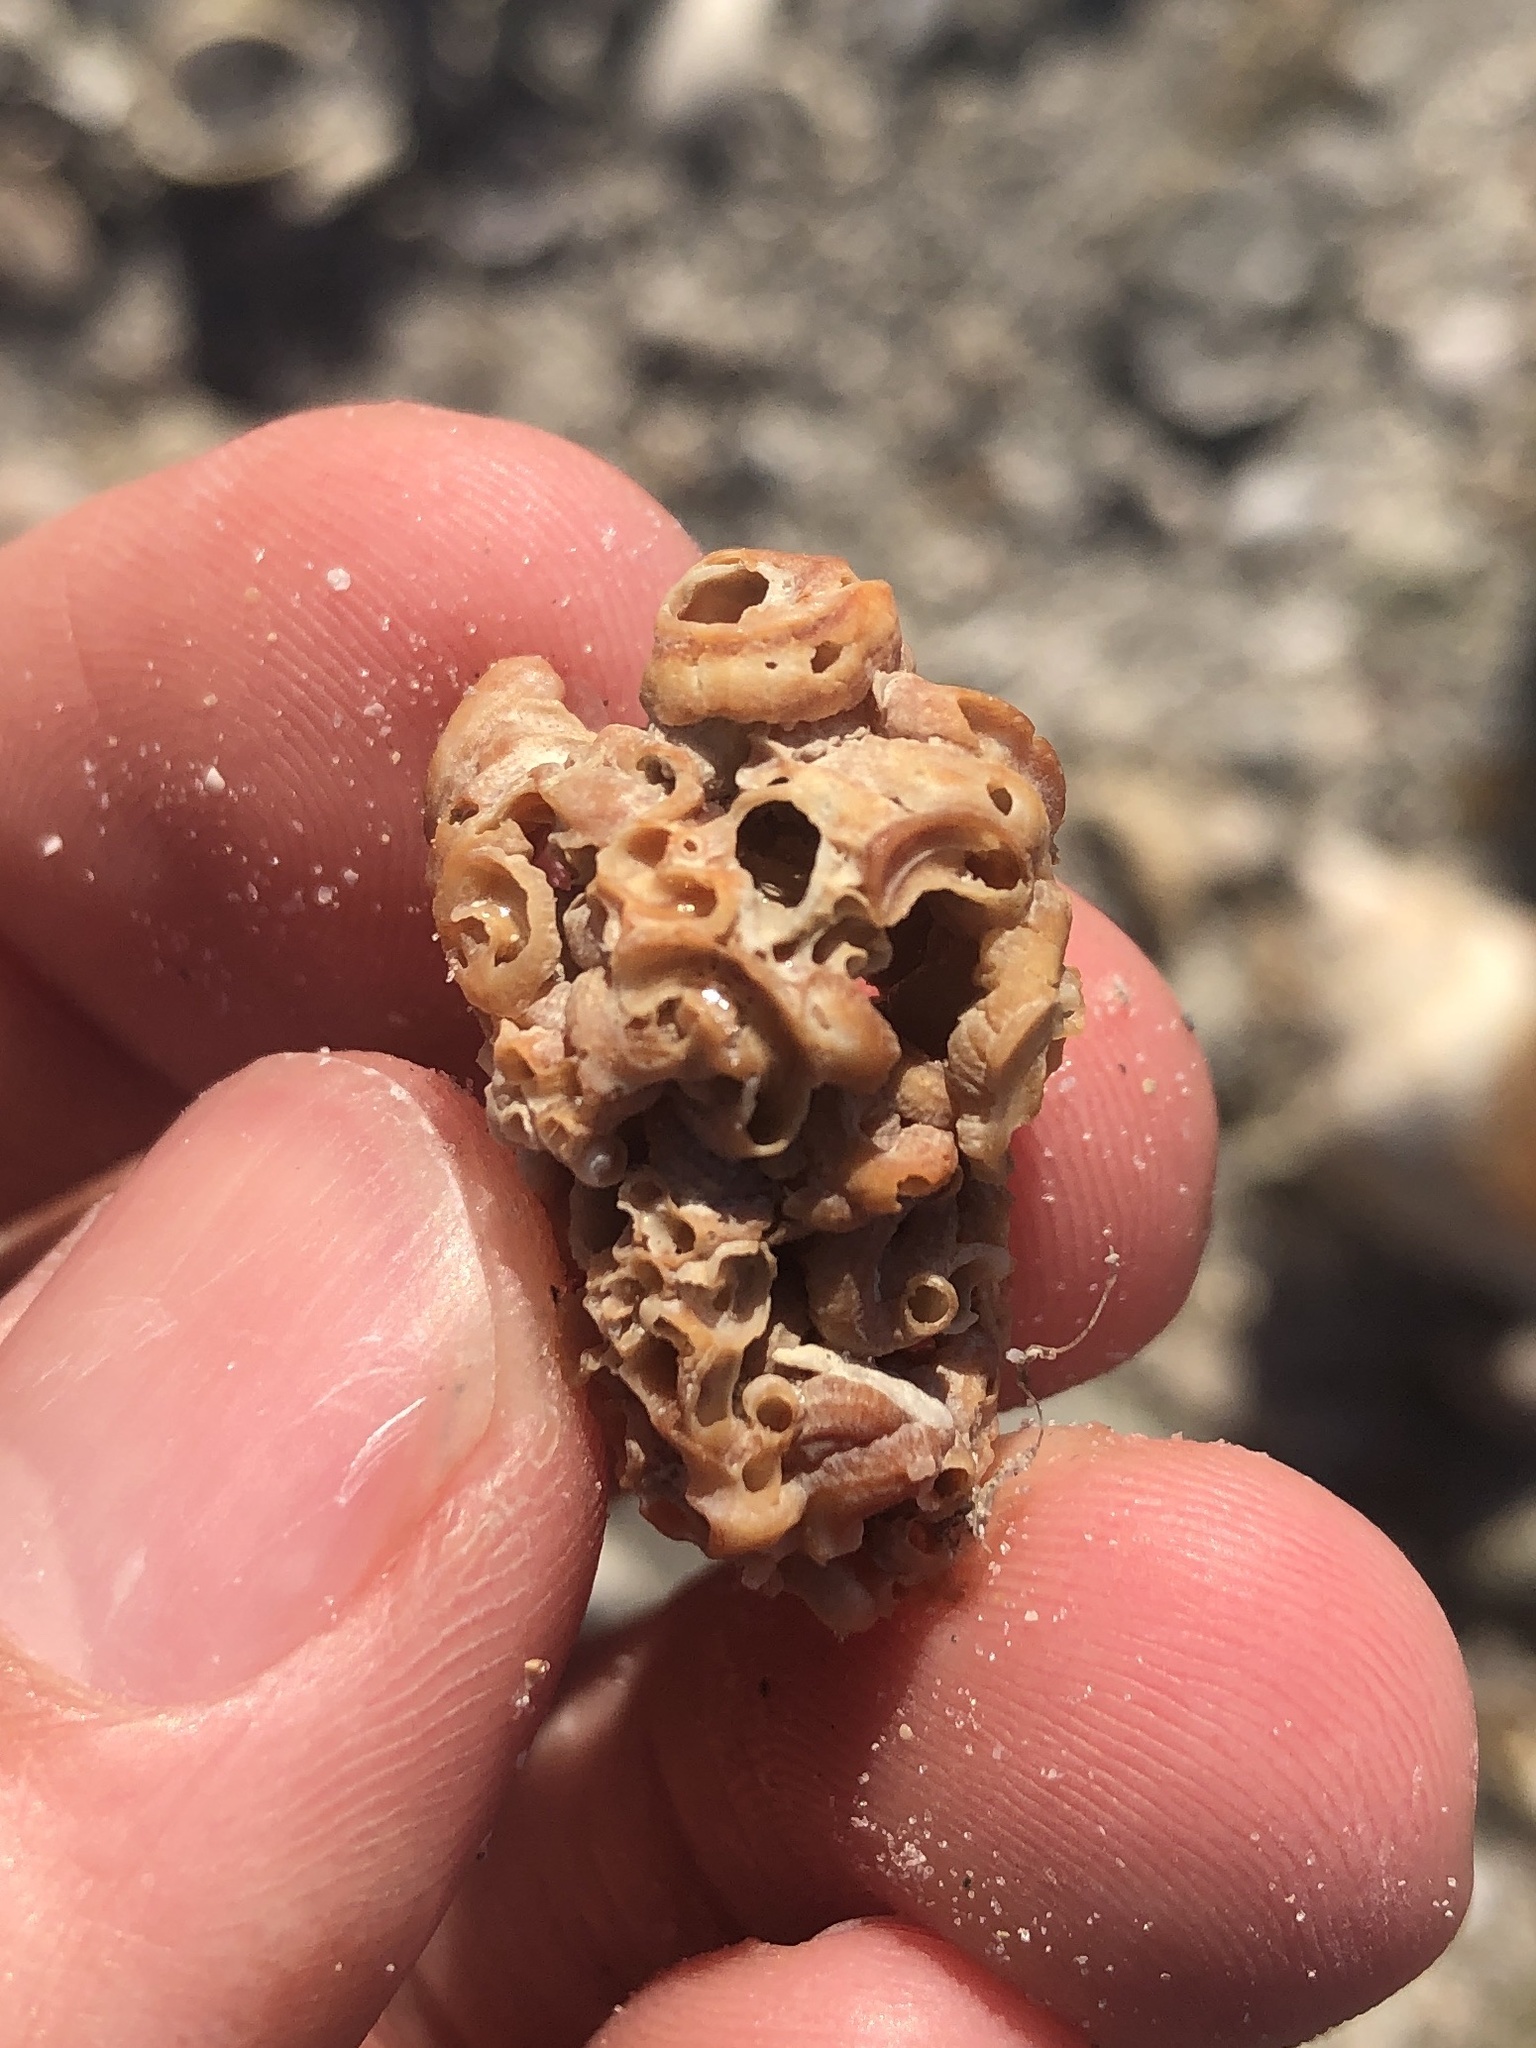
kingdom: Animalia
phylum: Mollusca
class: Gastropoda
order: Littorinimorpha
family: Vermetidae
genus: Petaloconchus
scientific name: Petaloconchus varians
